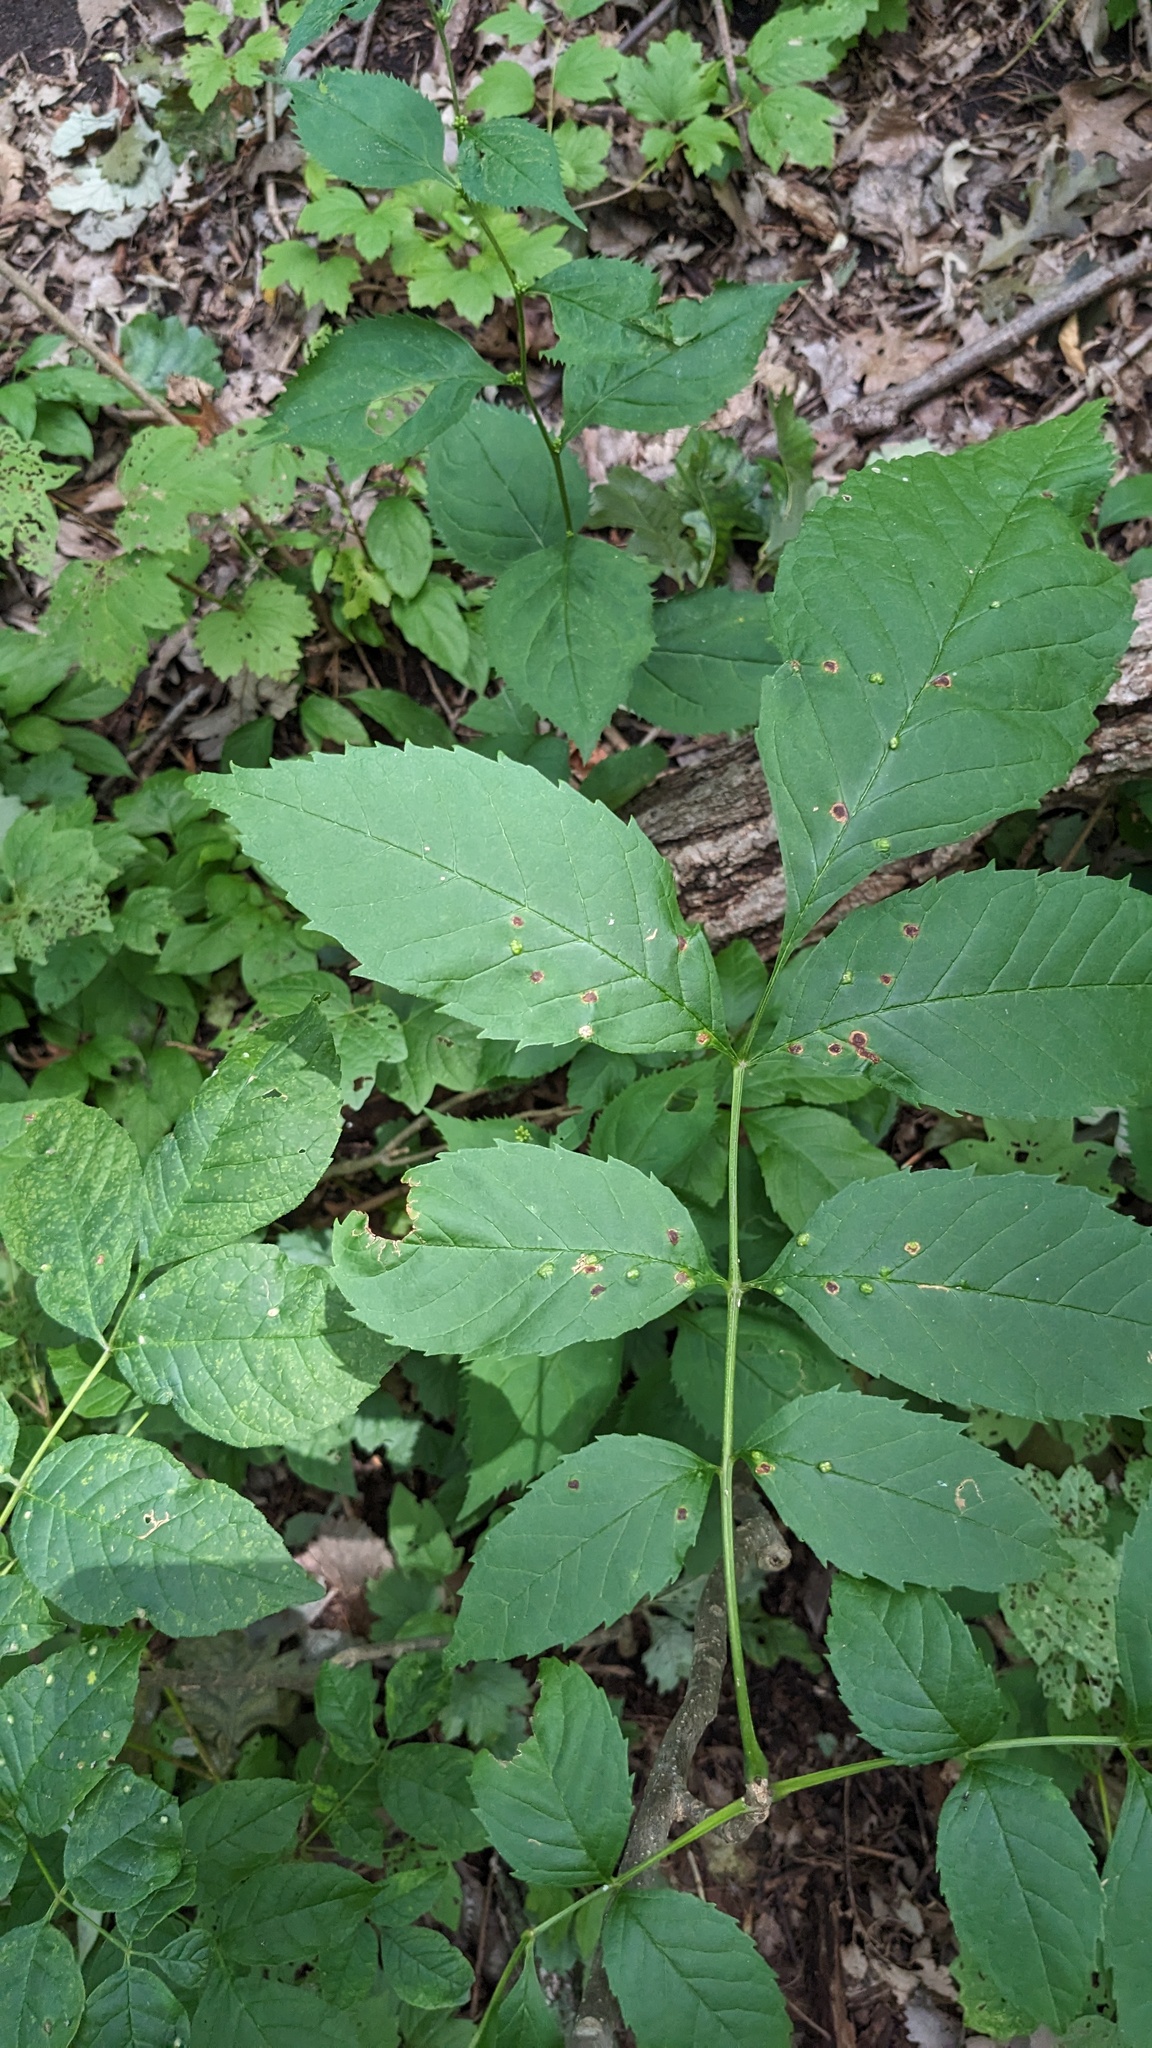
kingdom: Animalia
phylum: Arthropoda
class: Arachnida
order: Trombidiformes
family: Eriophyidae
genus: Aceria
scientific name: Aceria fraxinicola
